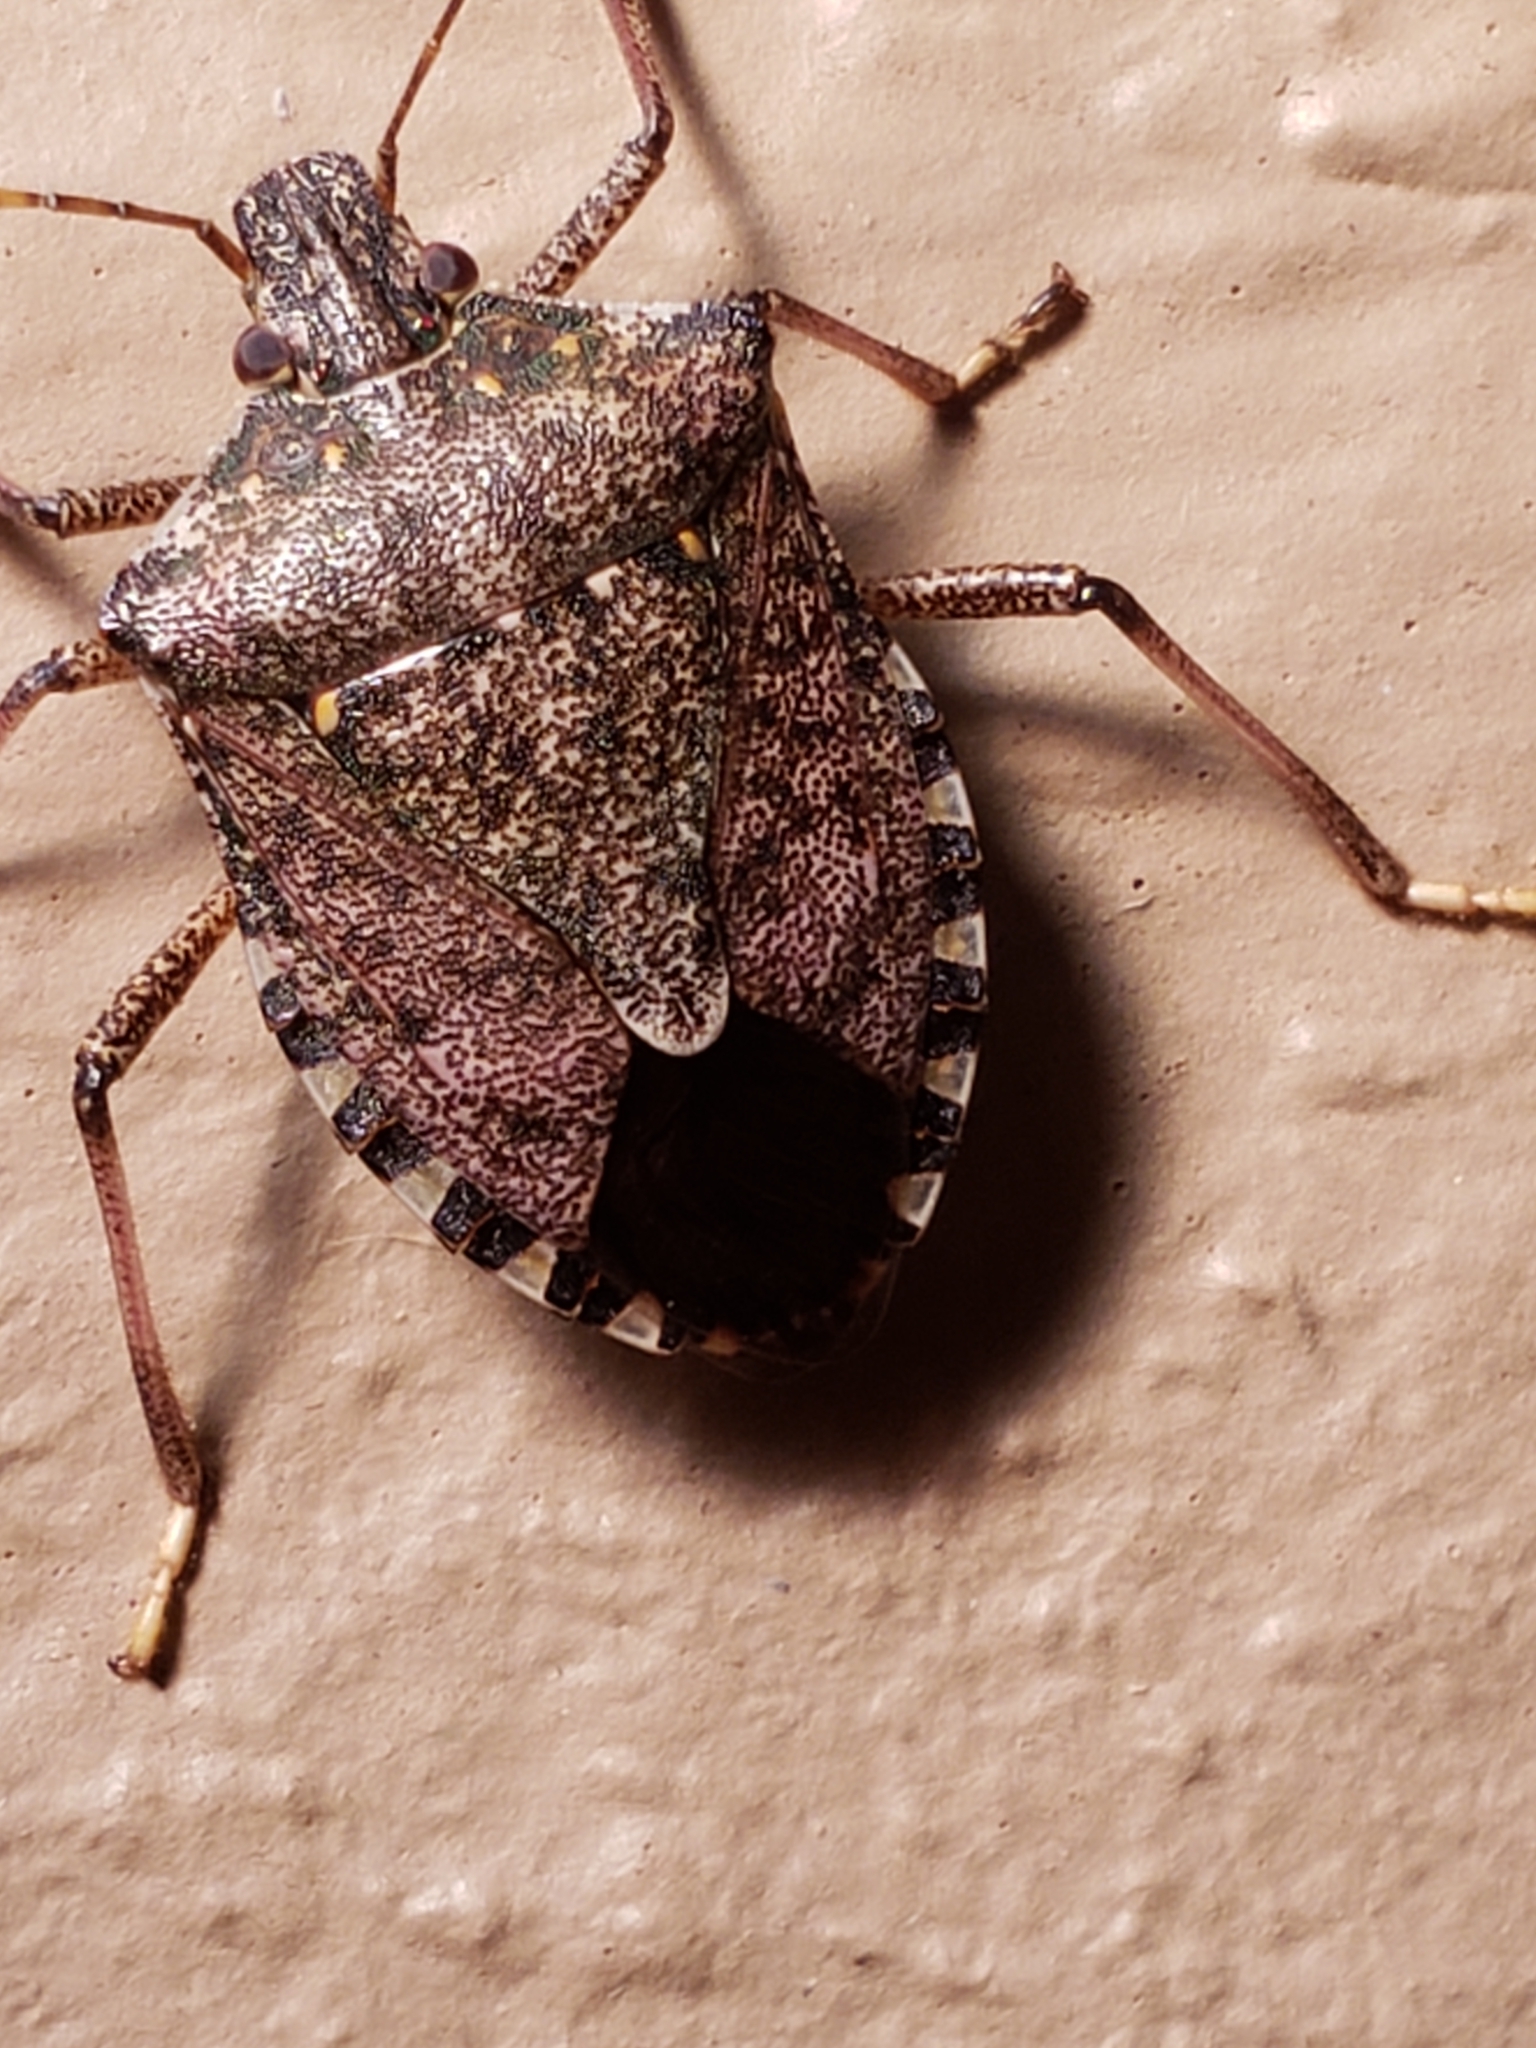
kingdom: Animalia
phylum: Arthropoda
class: Insecta
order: Hemiptera
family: Pentatomidae
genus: Halyomorpha
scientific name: Halyomorpha halys
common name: Brown marmorated stink bug
